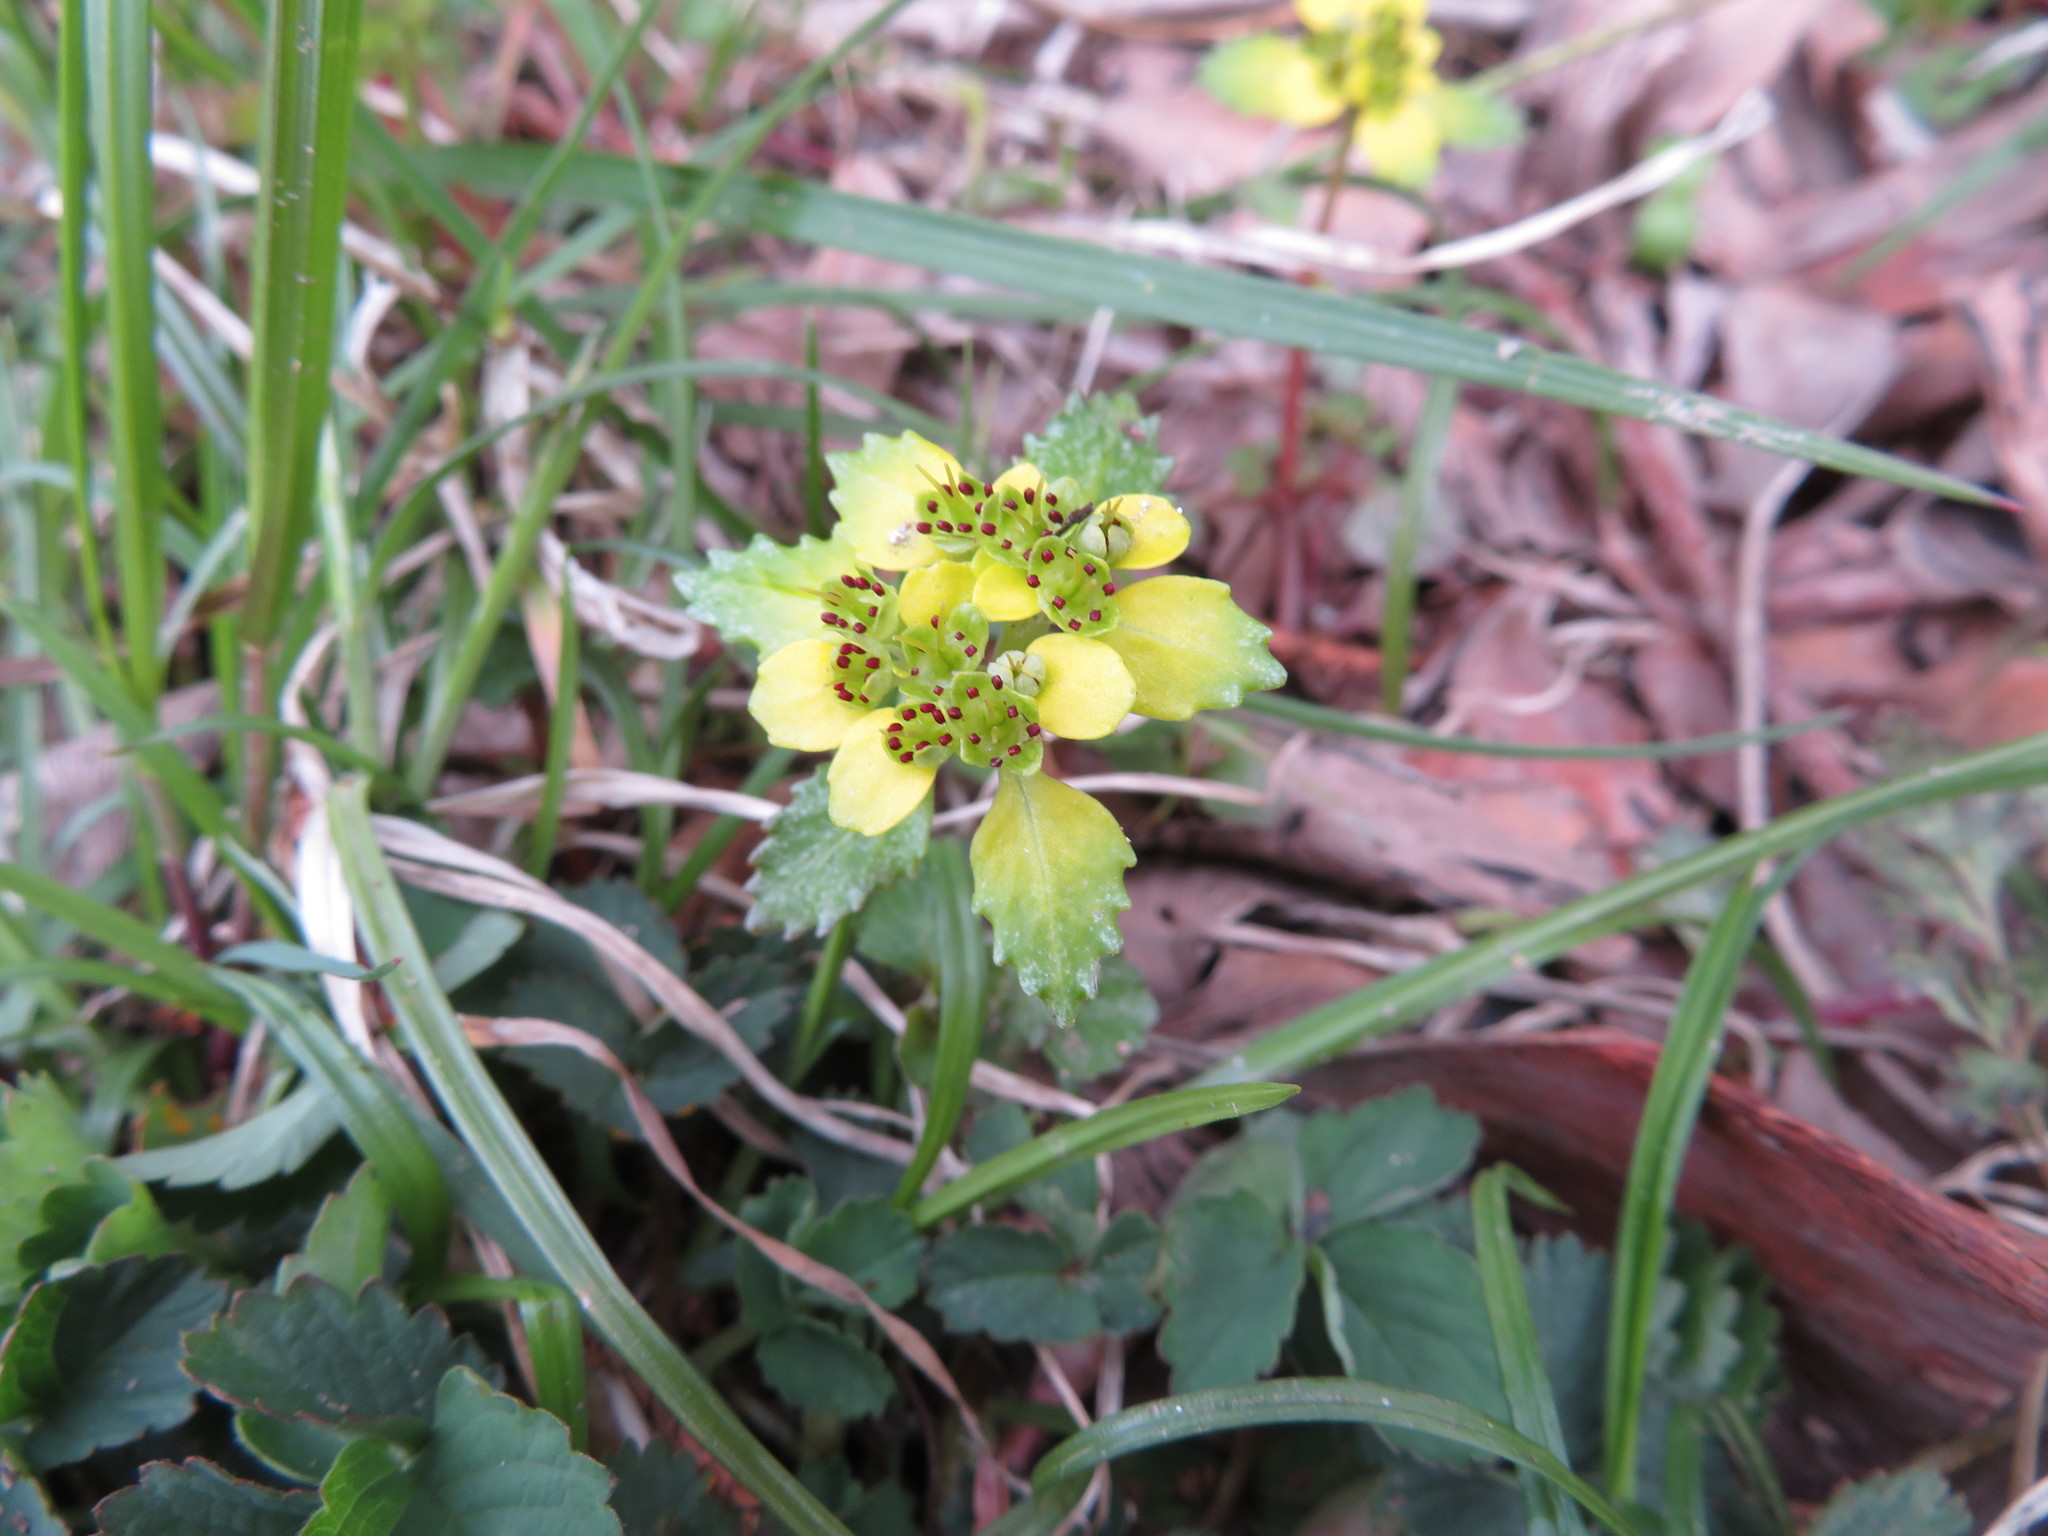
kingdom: Plantae
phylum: Tracheophyta
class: Magnoliopsida
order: Saxifragales
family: Saxifragaceae
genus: Chrysosplenium
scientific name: Chrysosplenium macrostemon
